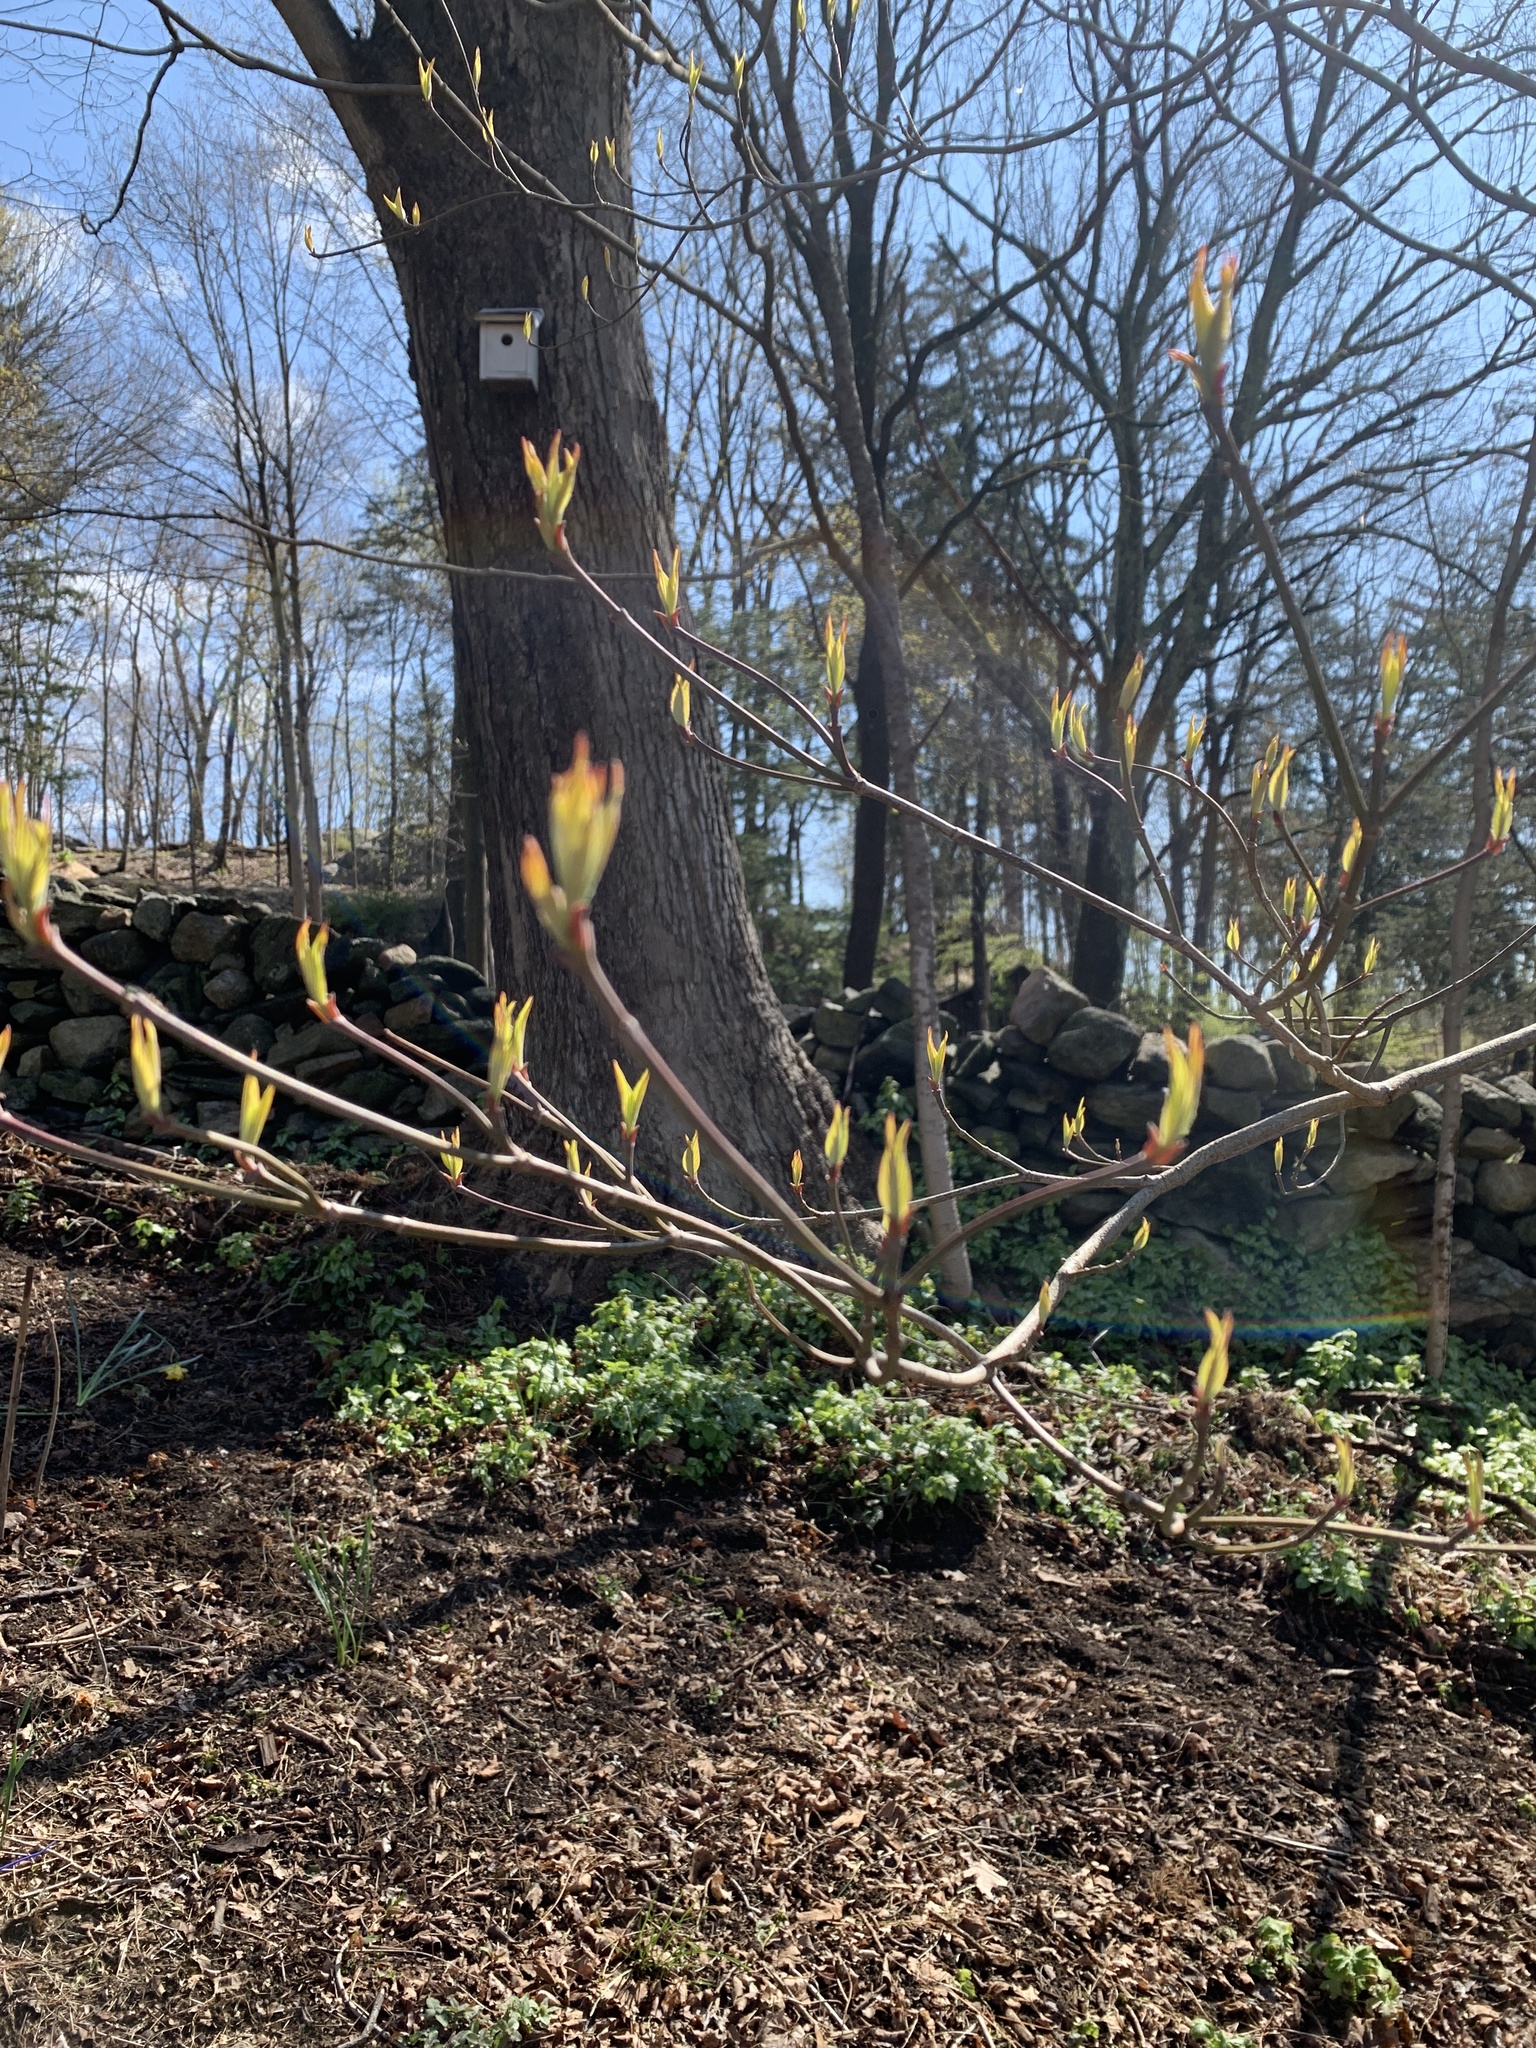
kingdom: Plantae
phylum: Tracheophyta
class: Magnoliopsida
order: Cornales
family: Cornaceae
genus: Cornus
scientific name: Cornus florida
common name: Flowering dogwood
